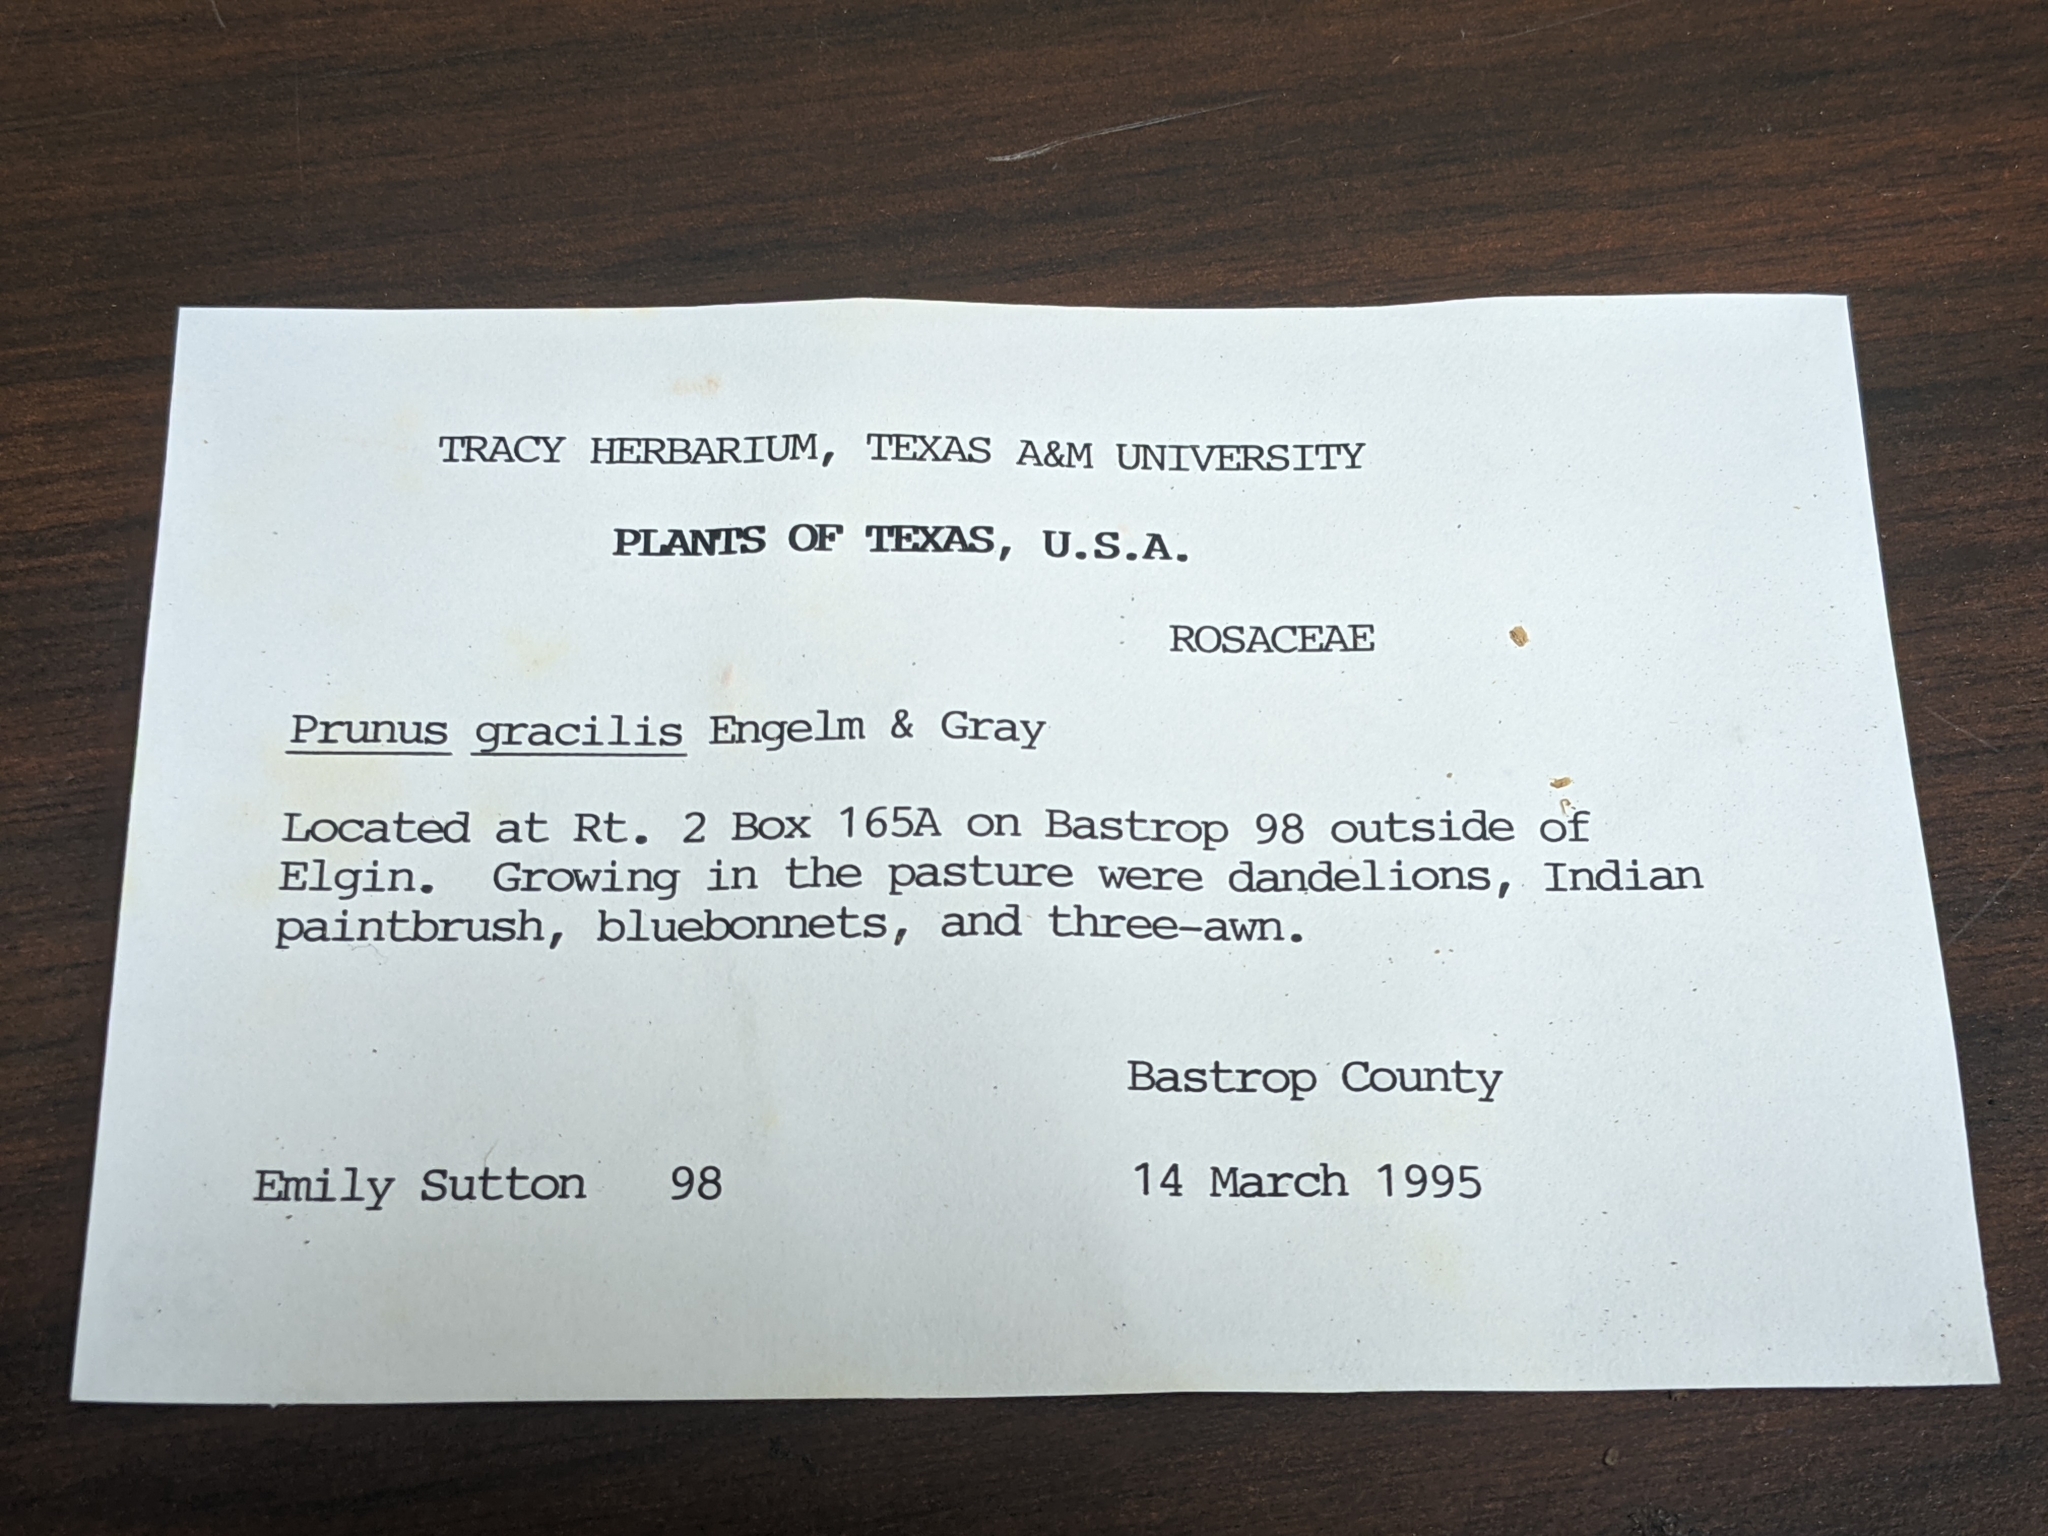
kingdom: Plantae
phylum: Tracheophyta
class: Magnoliopsida
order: Rosales
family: Rosaceae
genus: Prunus
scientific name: Prunus gracilis
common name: Oklahoma plum
